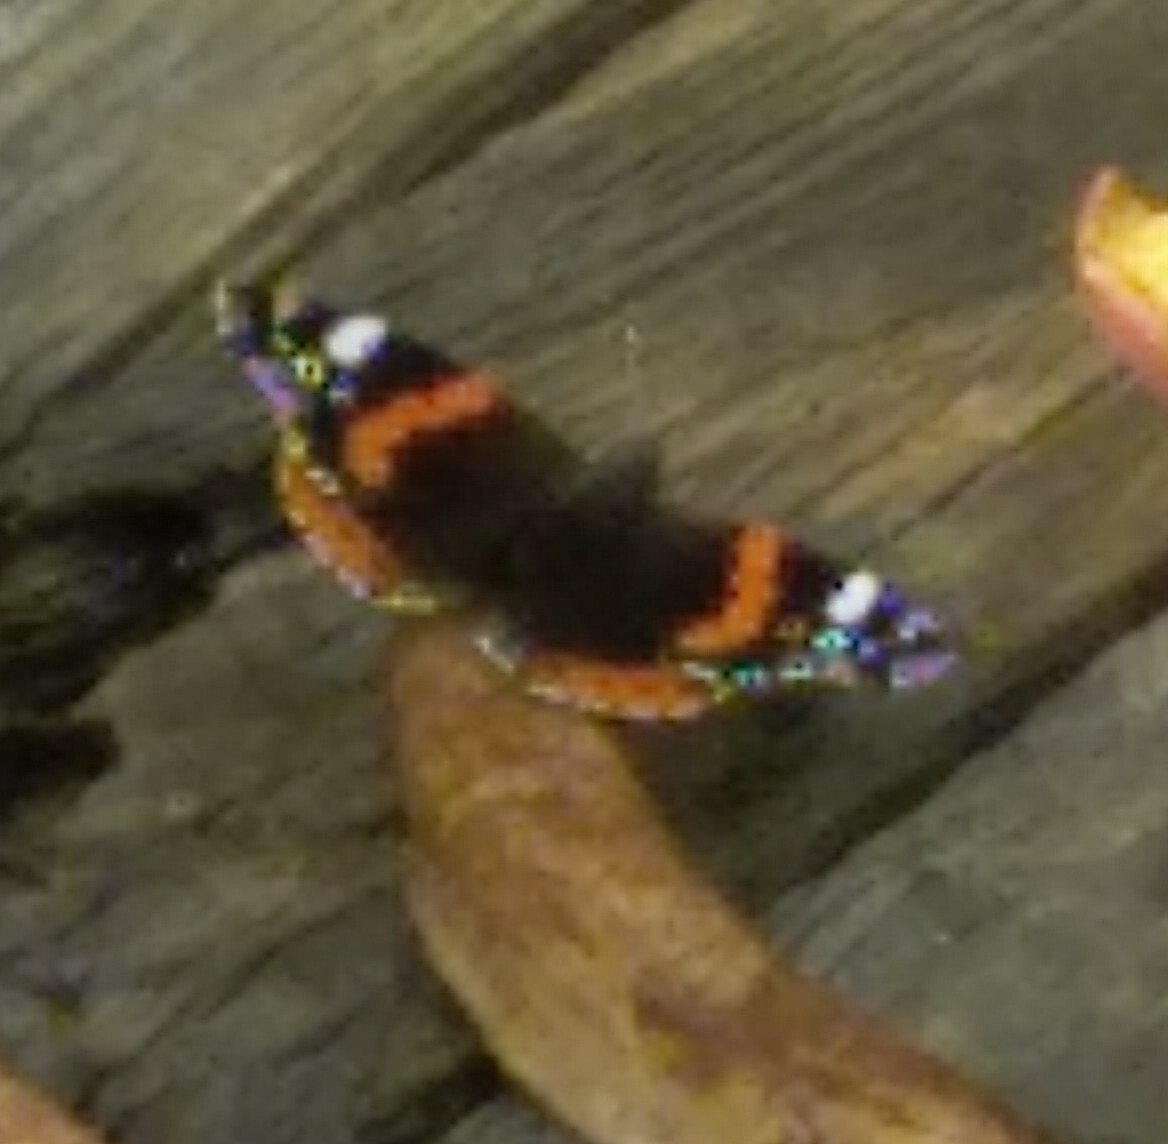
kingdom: Animalia
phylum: Arthropoda
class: Insecta
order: Lepidoptera
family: Nymphalidae
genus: Vanessa
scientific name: Vanessa atalanta
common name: Red admiral
